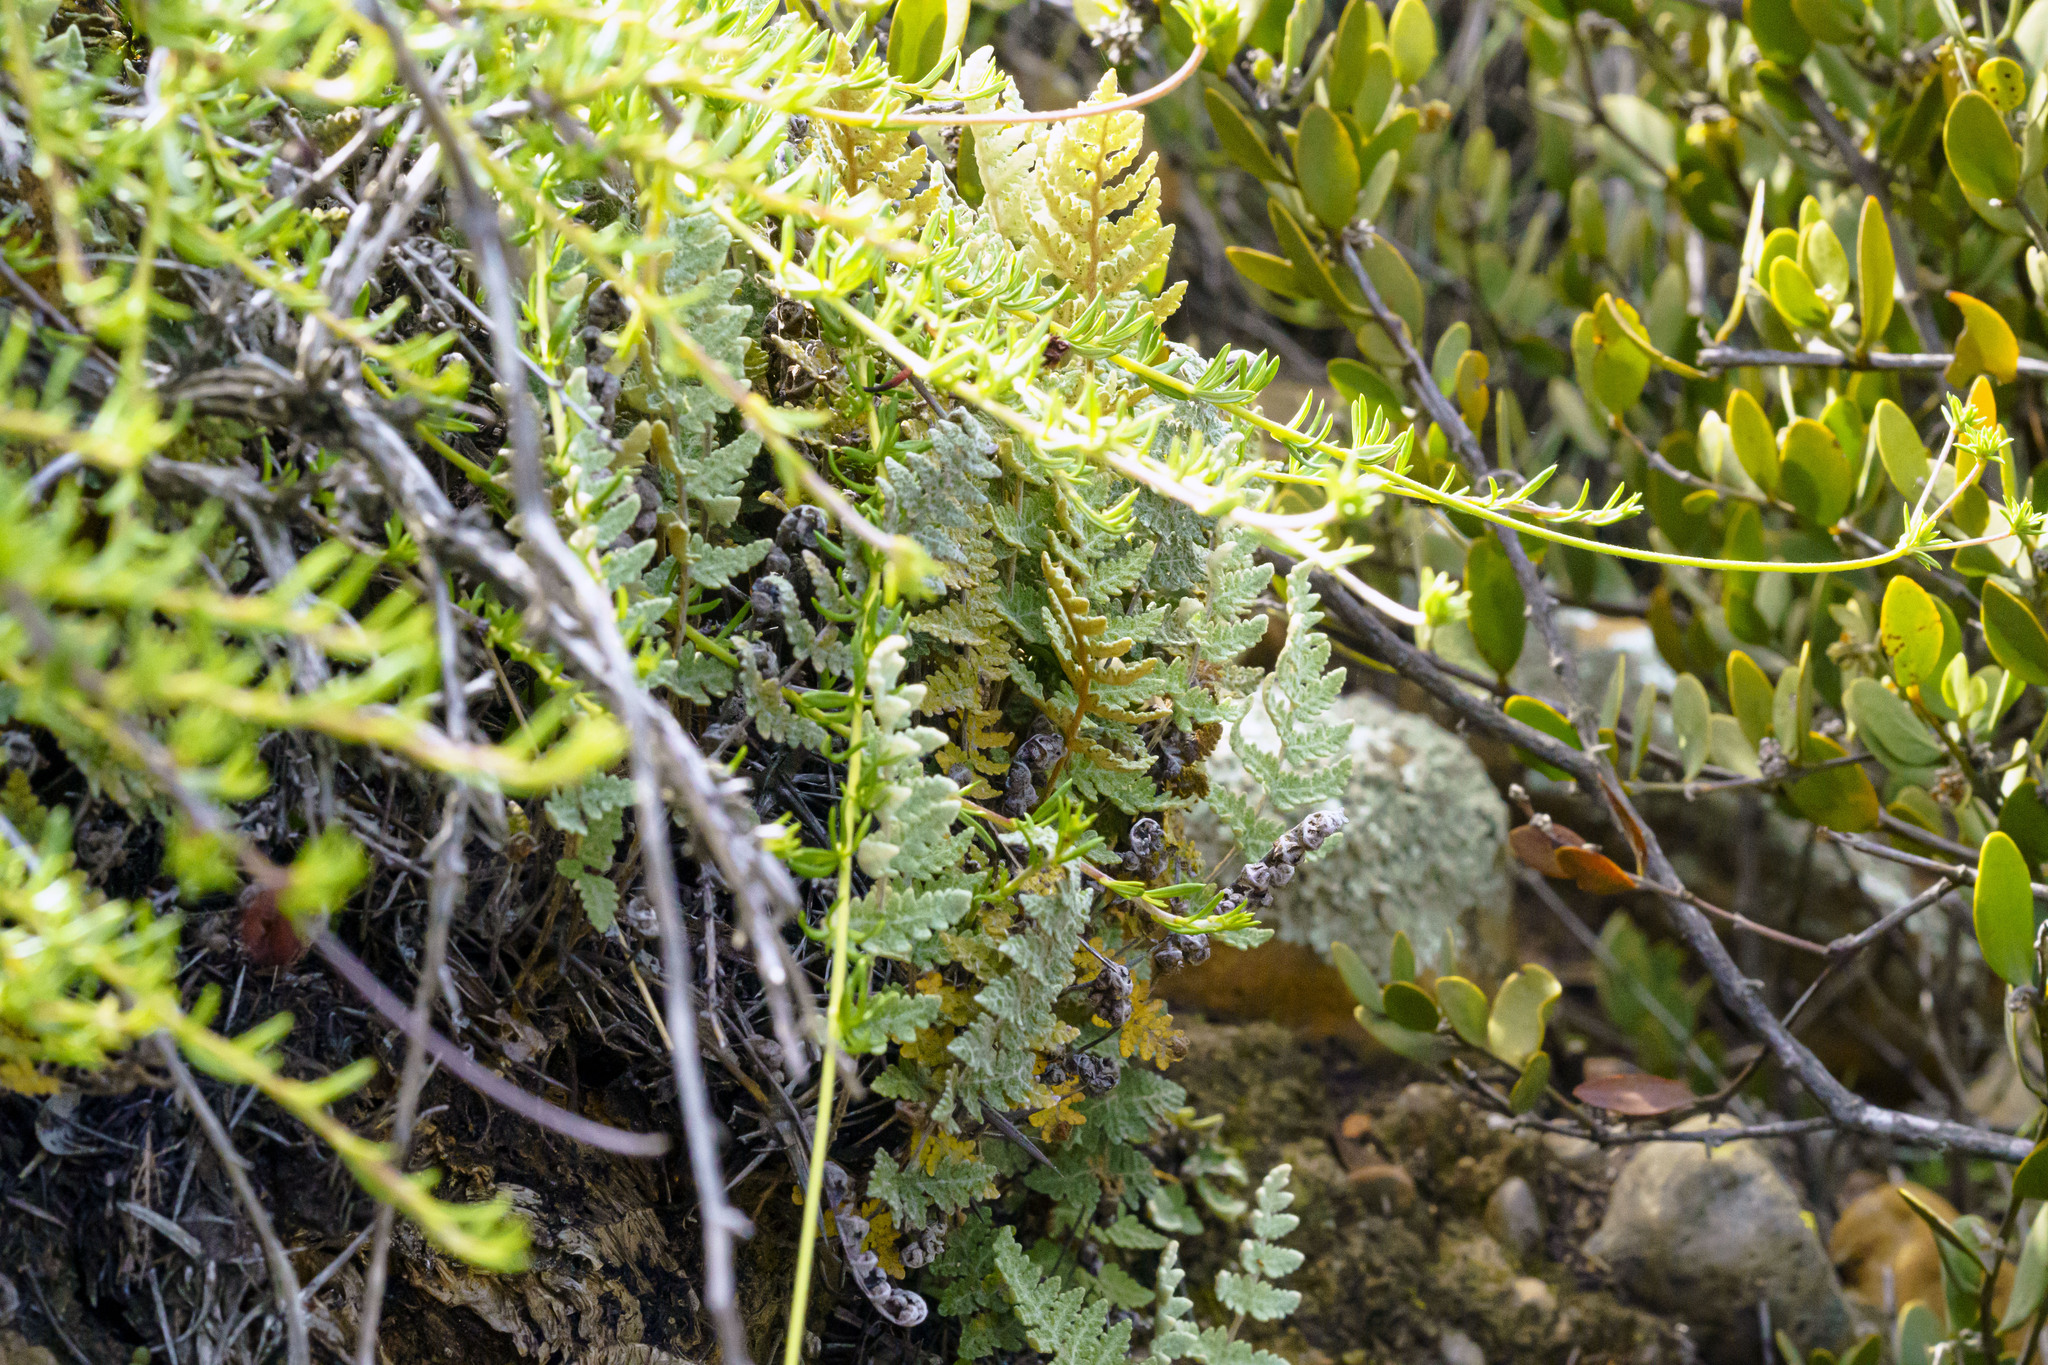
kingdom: Plantae
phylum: Tracheophyta
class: Polypodiopsida
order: Polypodiales
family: Pteridaceae
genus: Myriopteris
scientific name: Myriopteris newberryi
